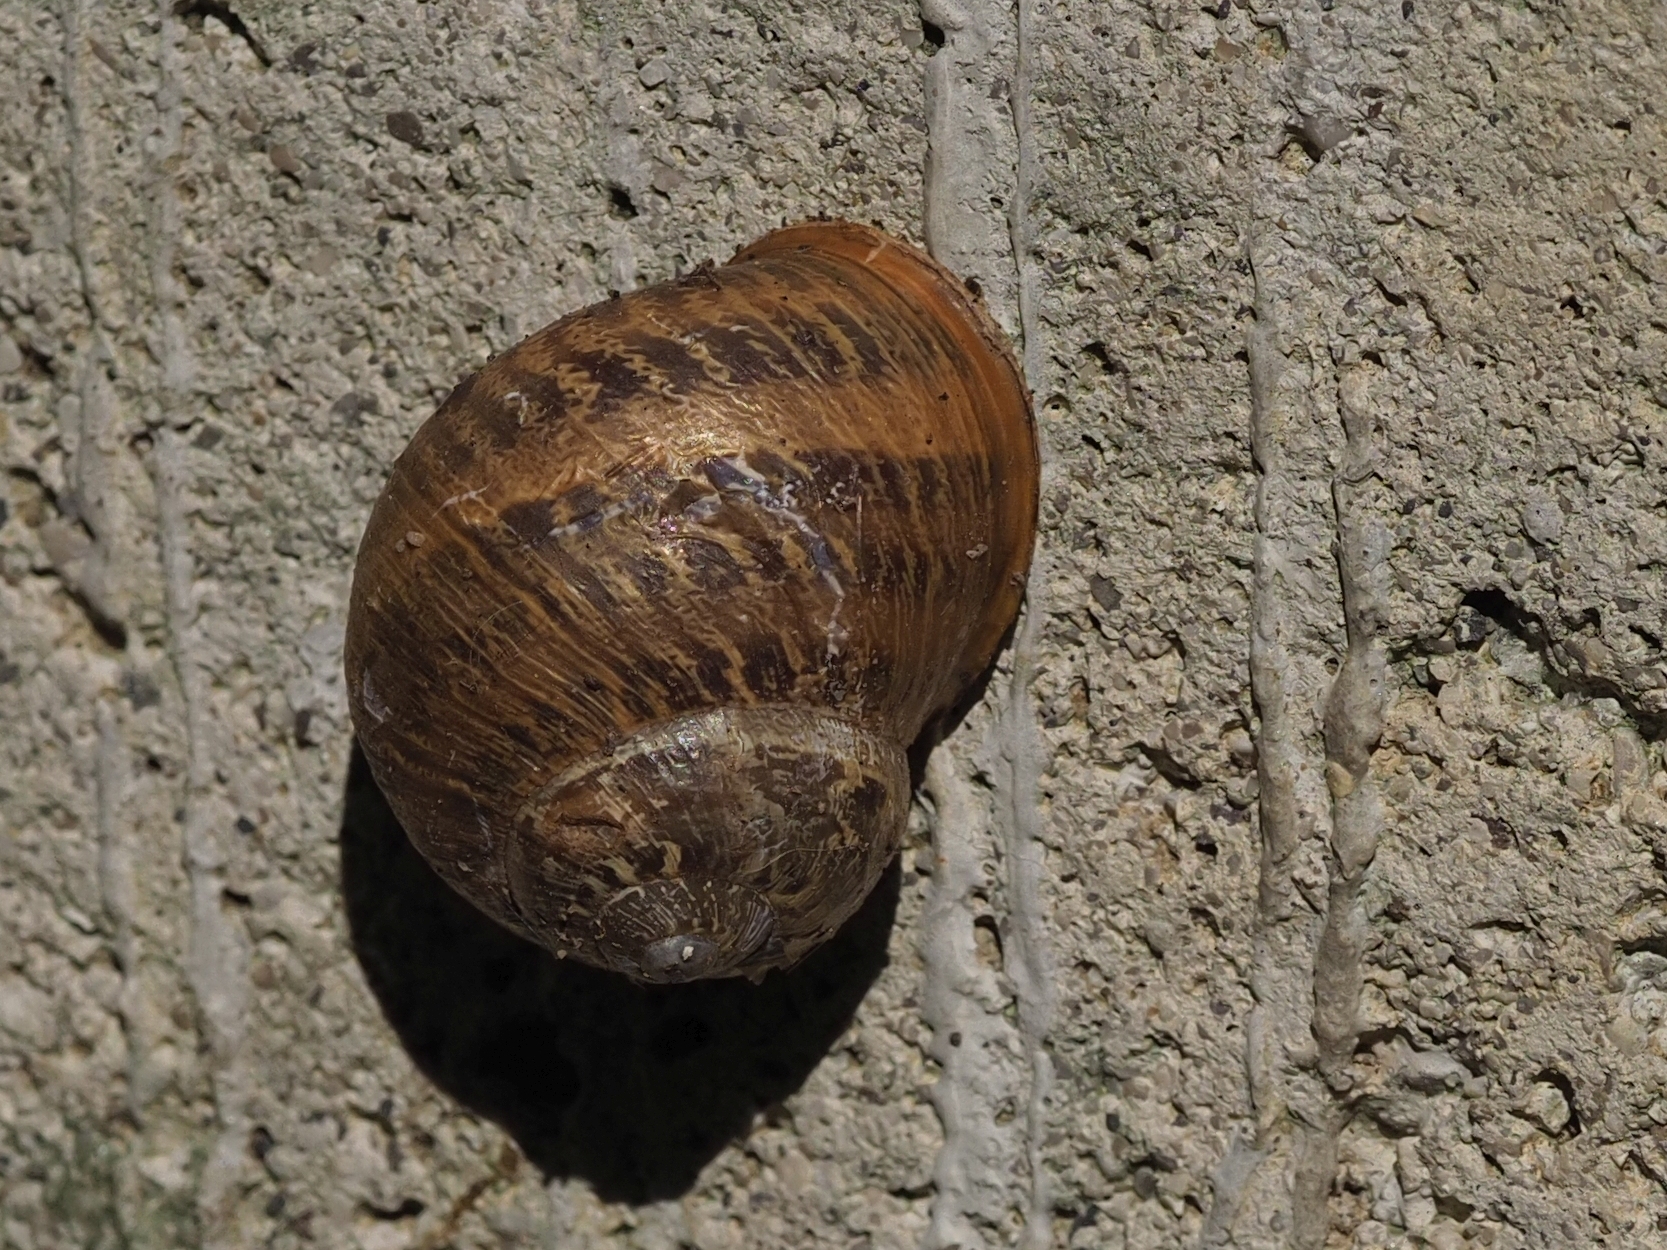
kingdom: Animalia
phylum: Mollusca
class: Gastropoda
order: Stylommatophora
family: Helicidae
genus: Cornu
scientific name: Cornu aspersum
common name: Brown garden snail
